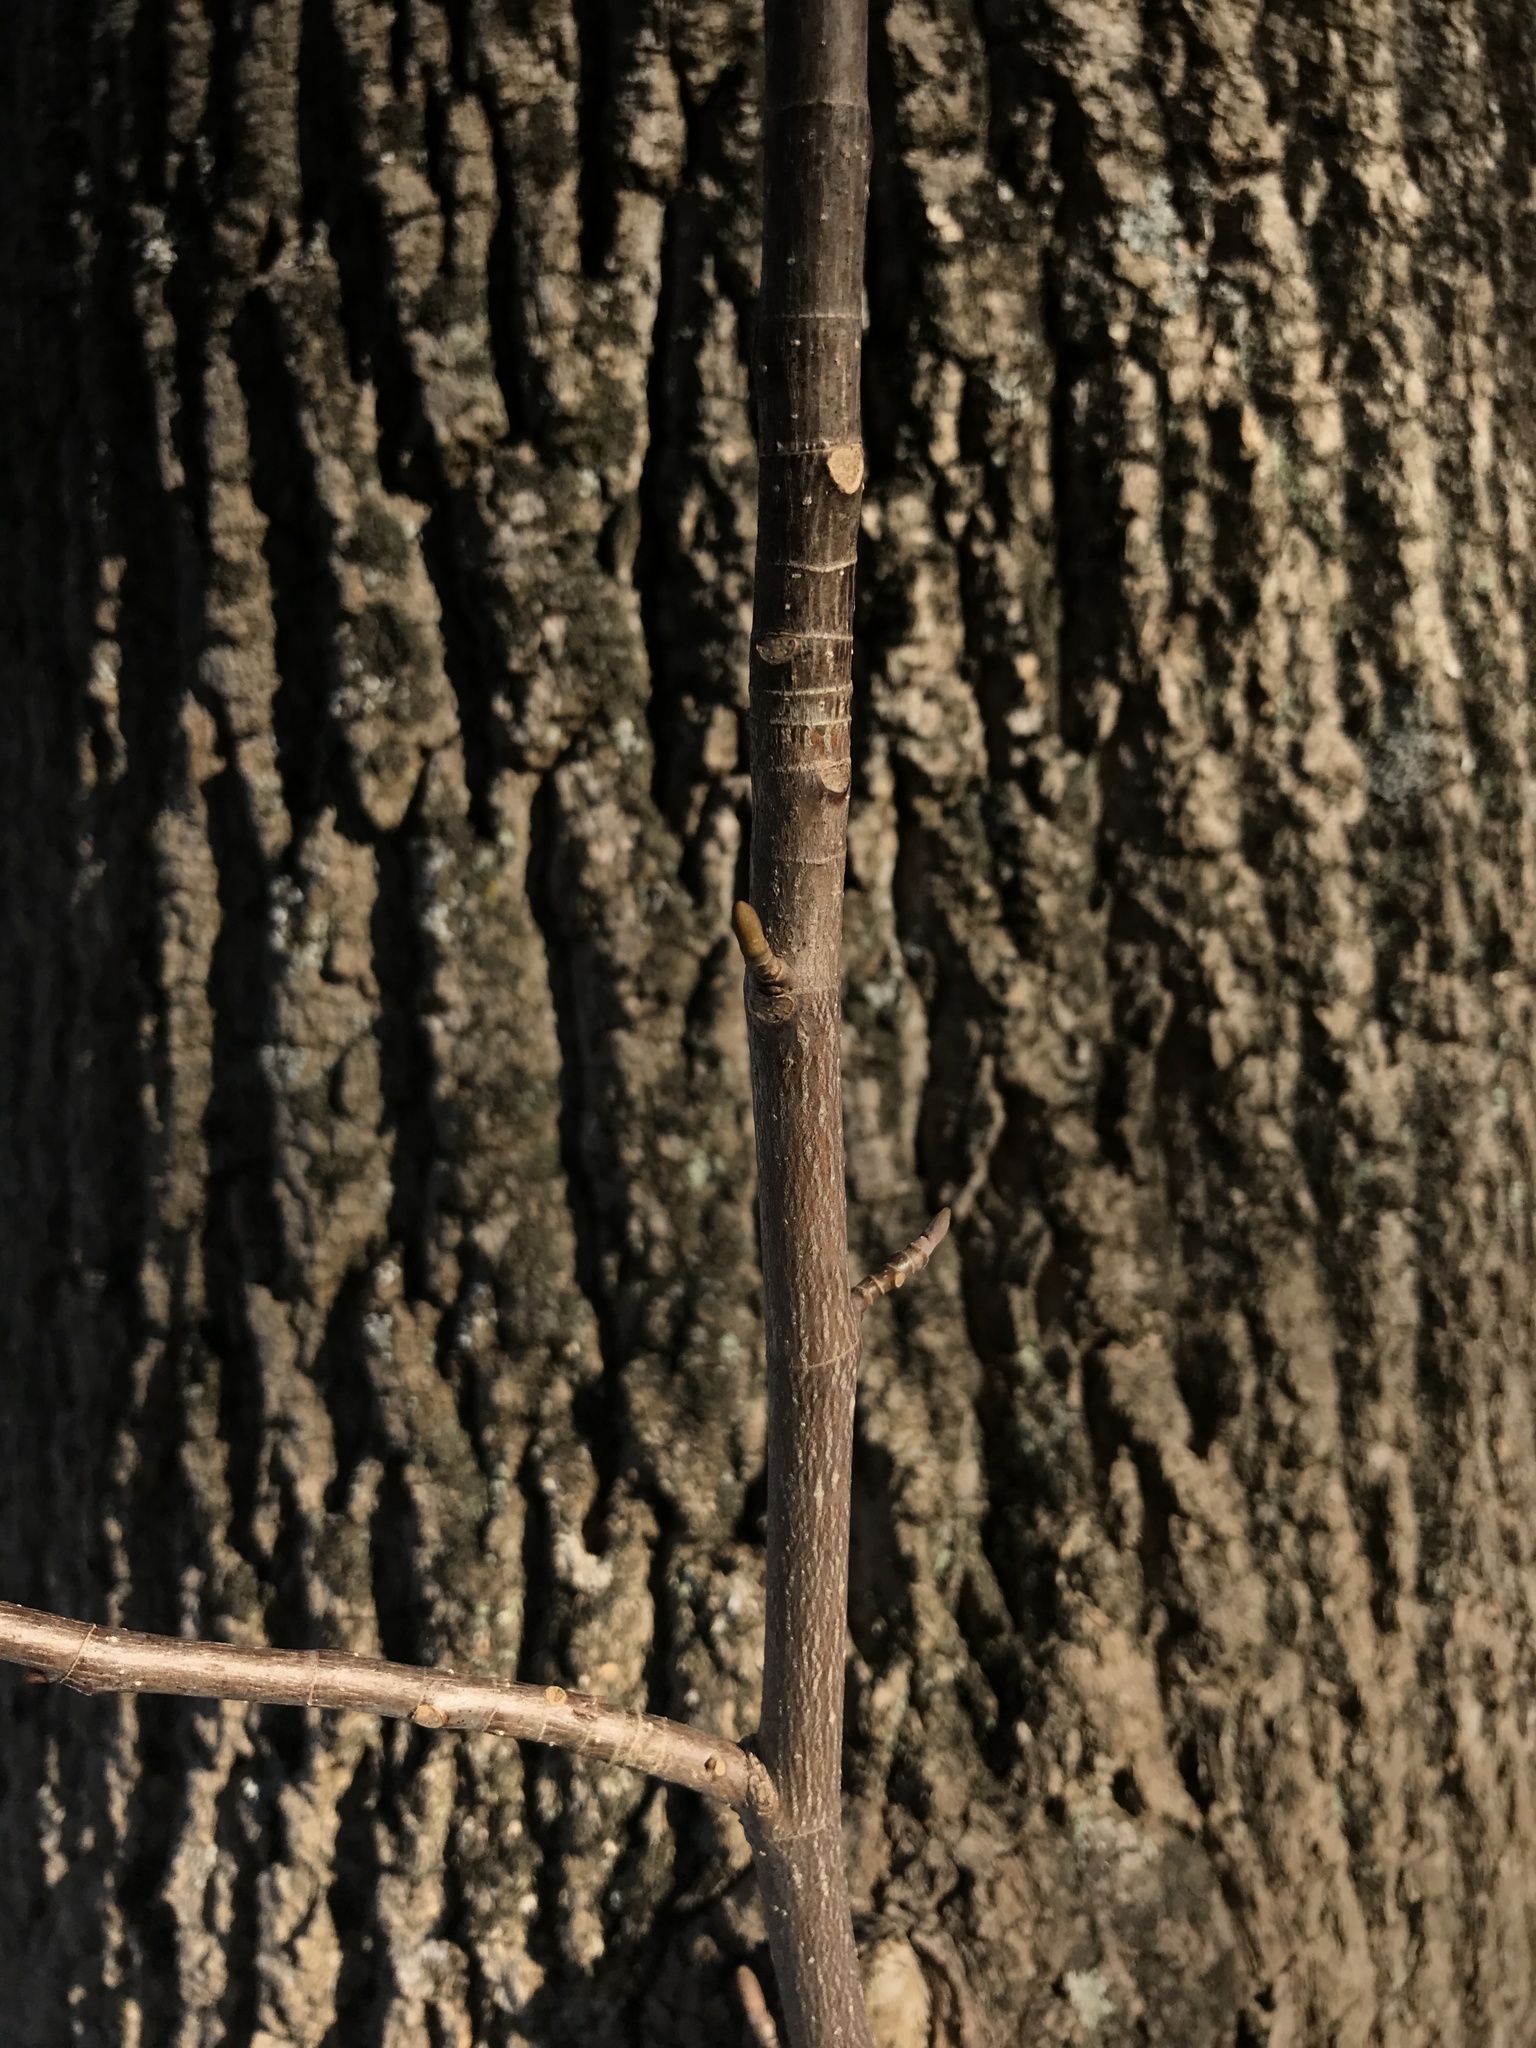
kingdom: Plantae
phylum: Tracheophyta
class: Magnoliopsida
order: Magnoliales
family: Magnoliaceae
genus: Liriodendron
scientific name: Liriodendron tulipifera
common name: Tulip tree
